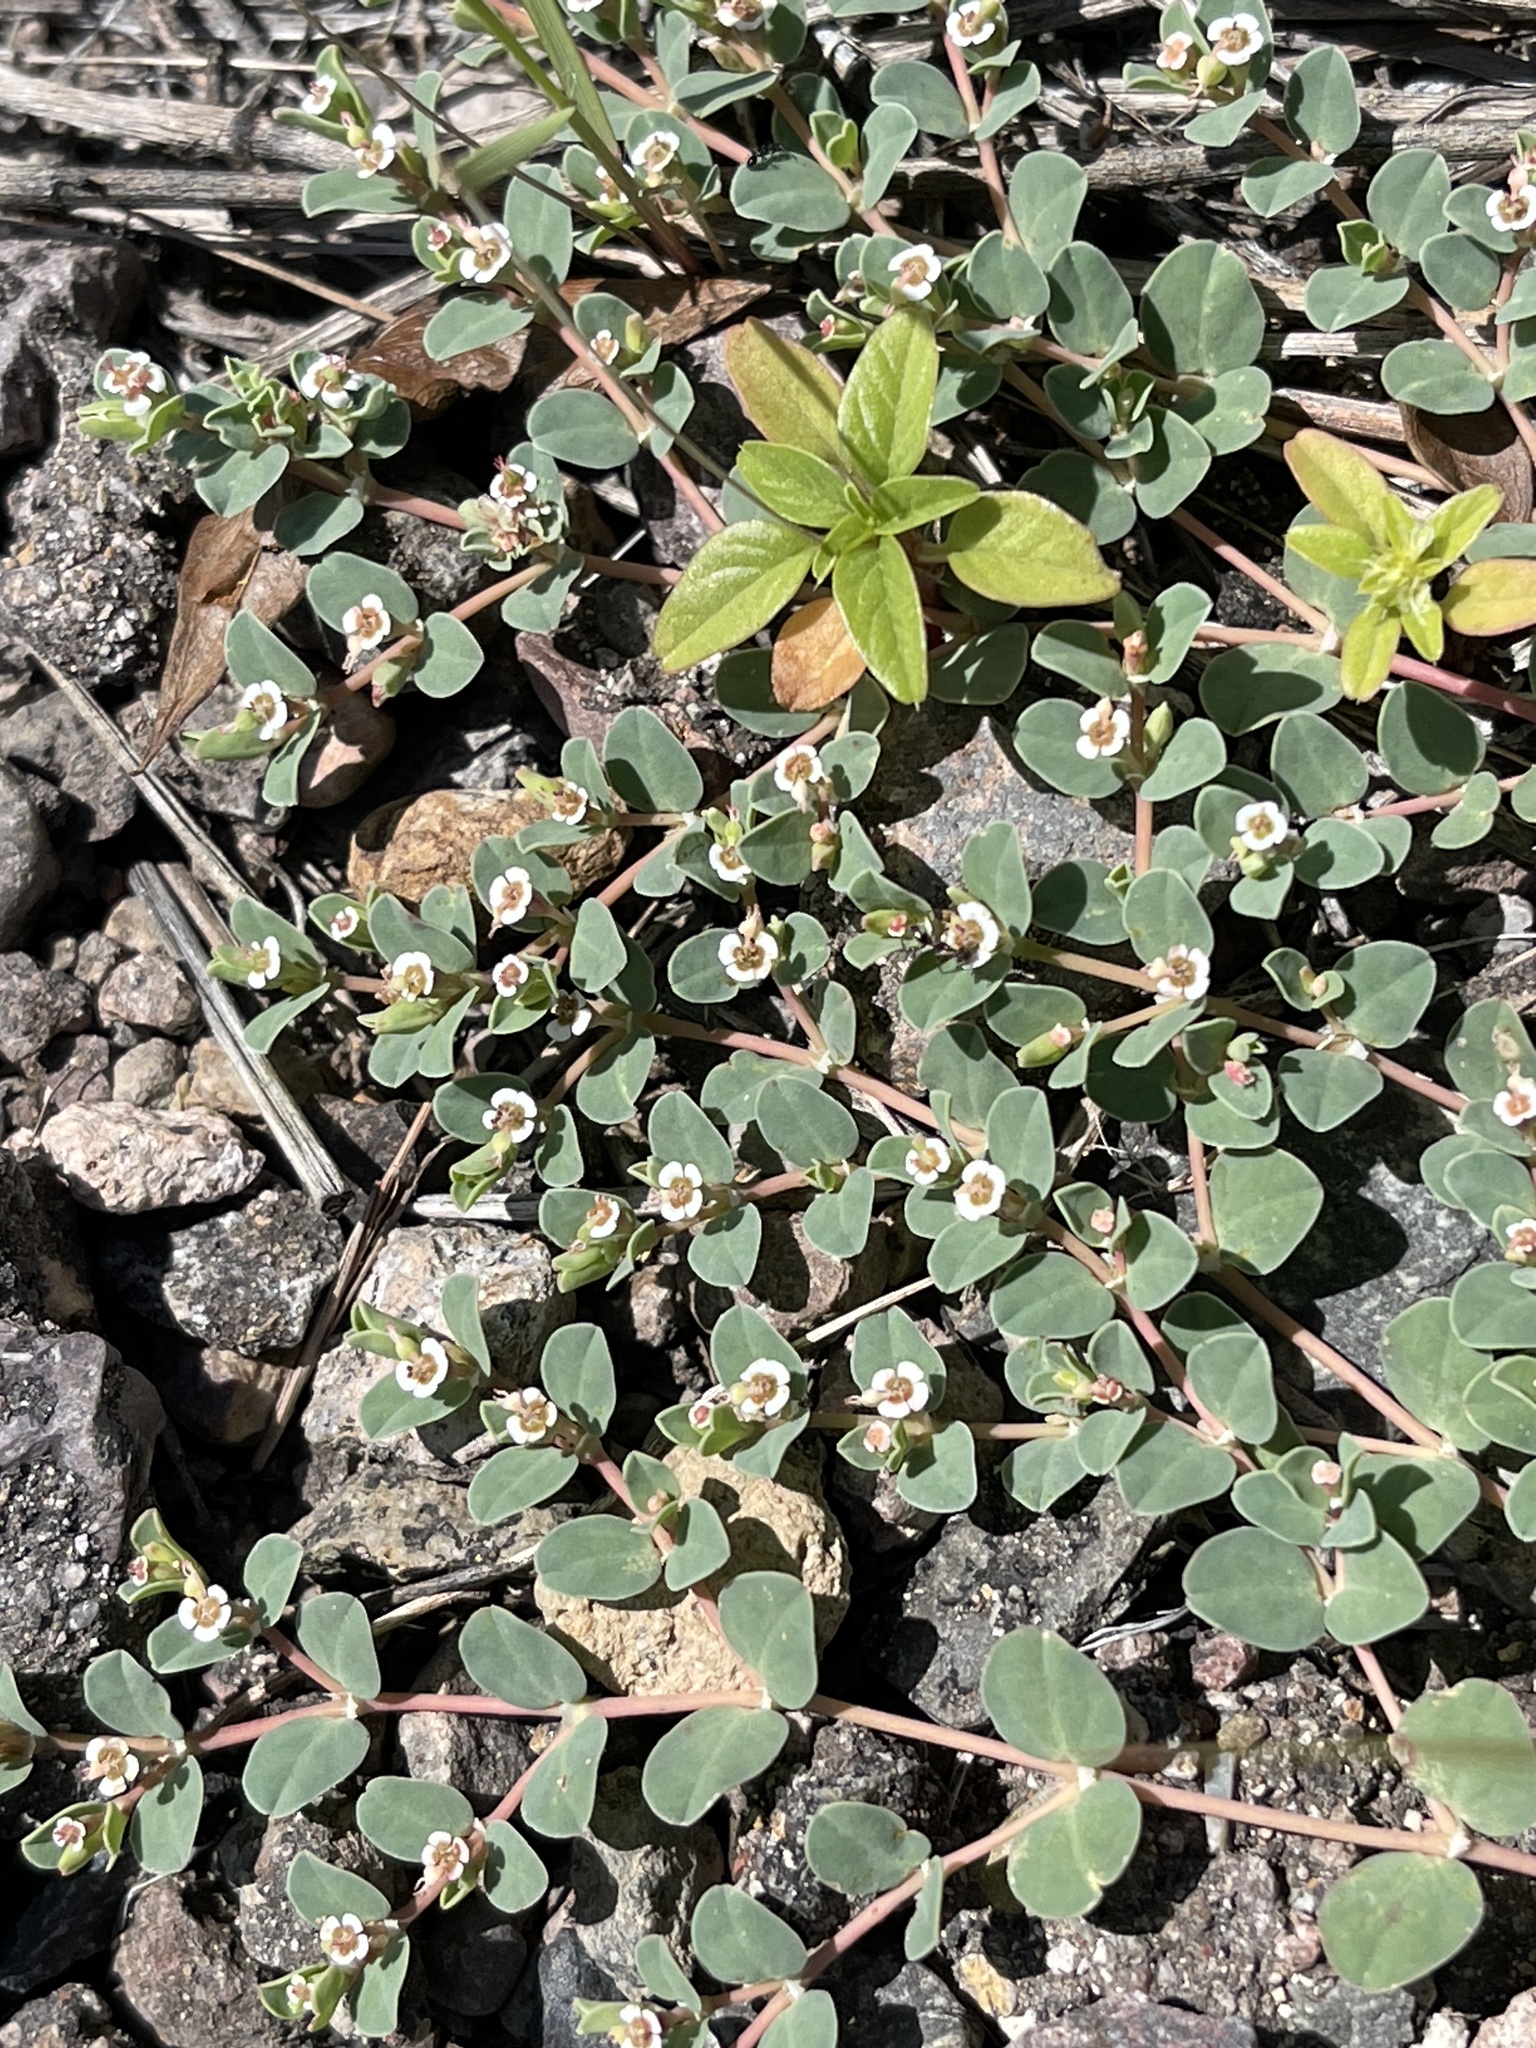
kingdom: Plantae
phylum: Tracheophyta
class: Magnoliopsida
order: Malpighiales
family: Euphorbiaceae
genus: Euphorbia
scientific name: Euphorbia albomarginata
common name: Whitemargin sandmat
